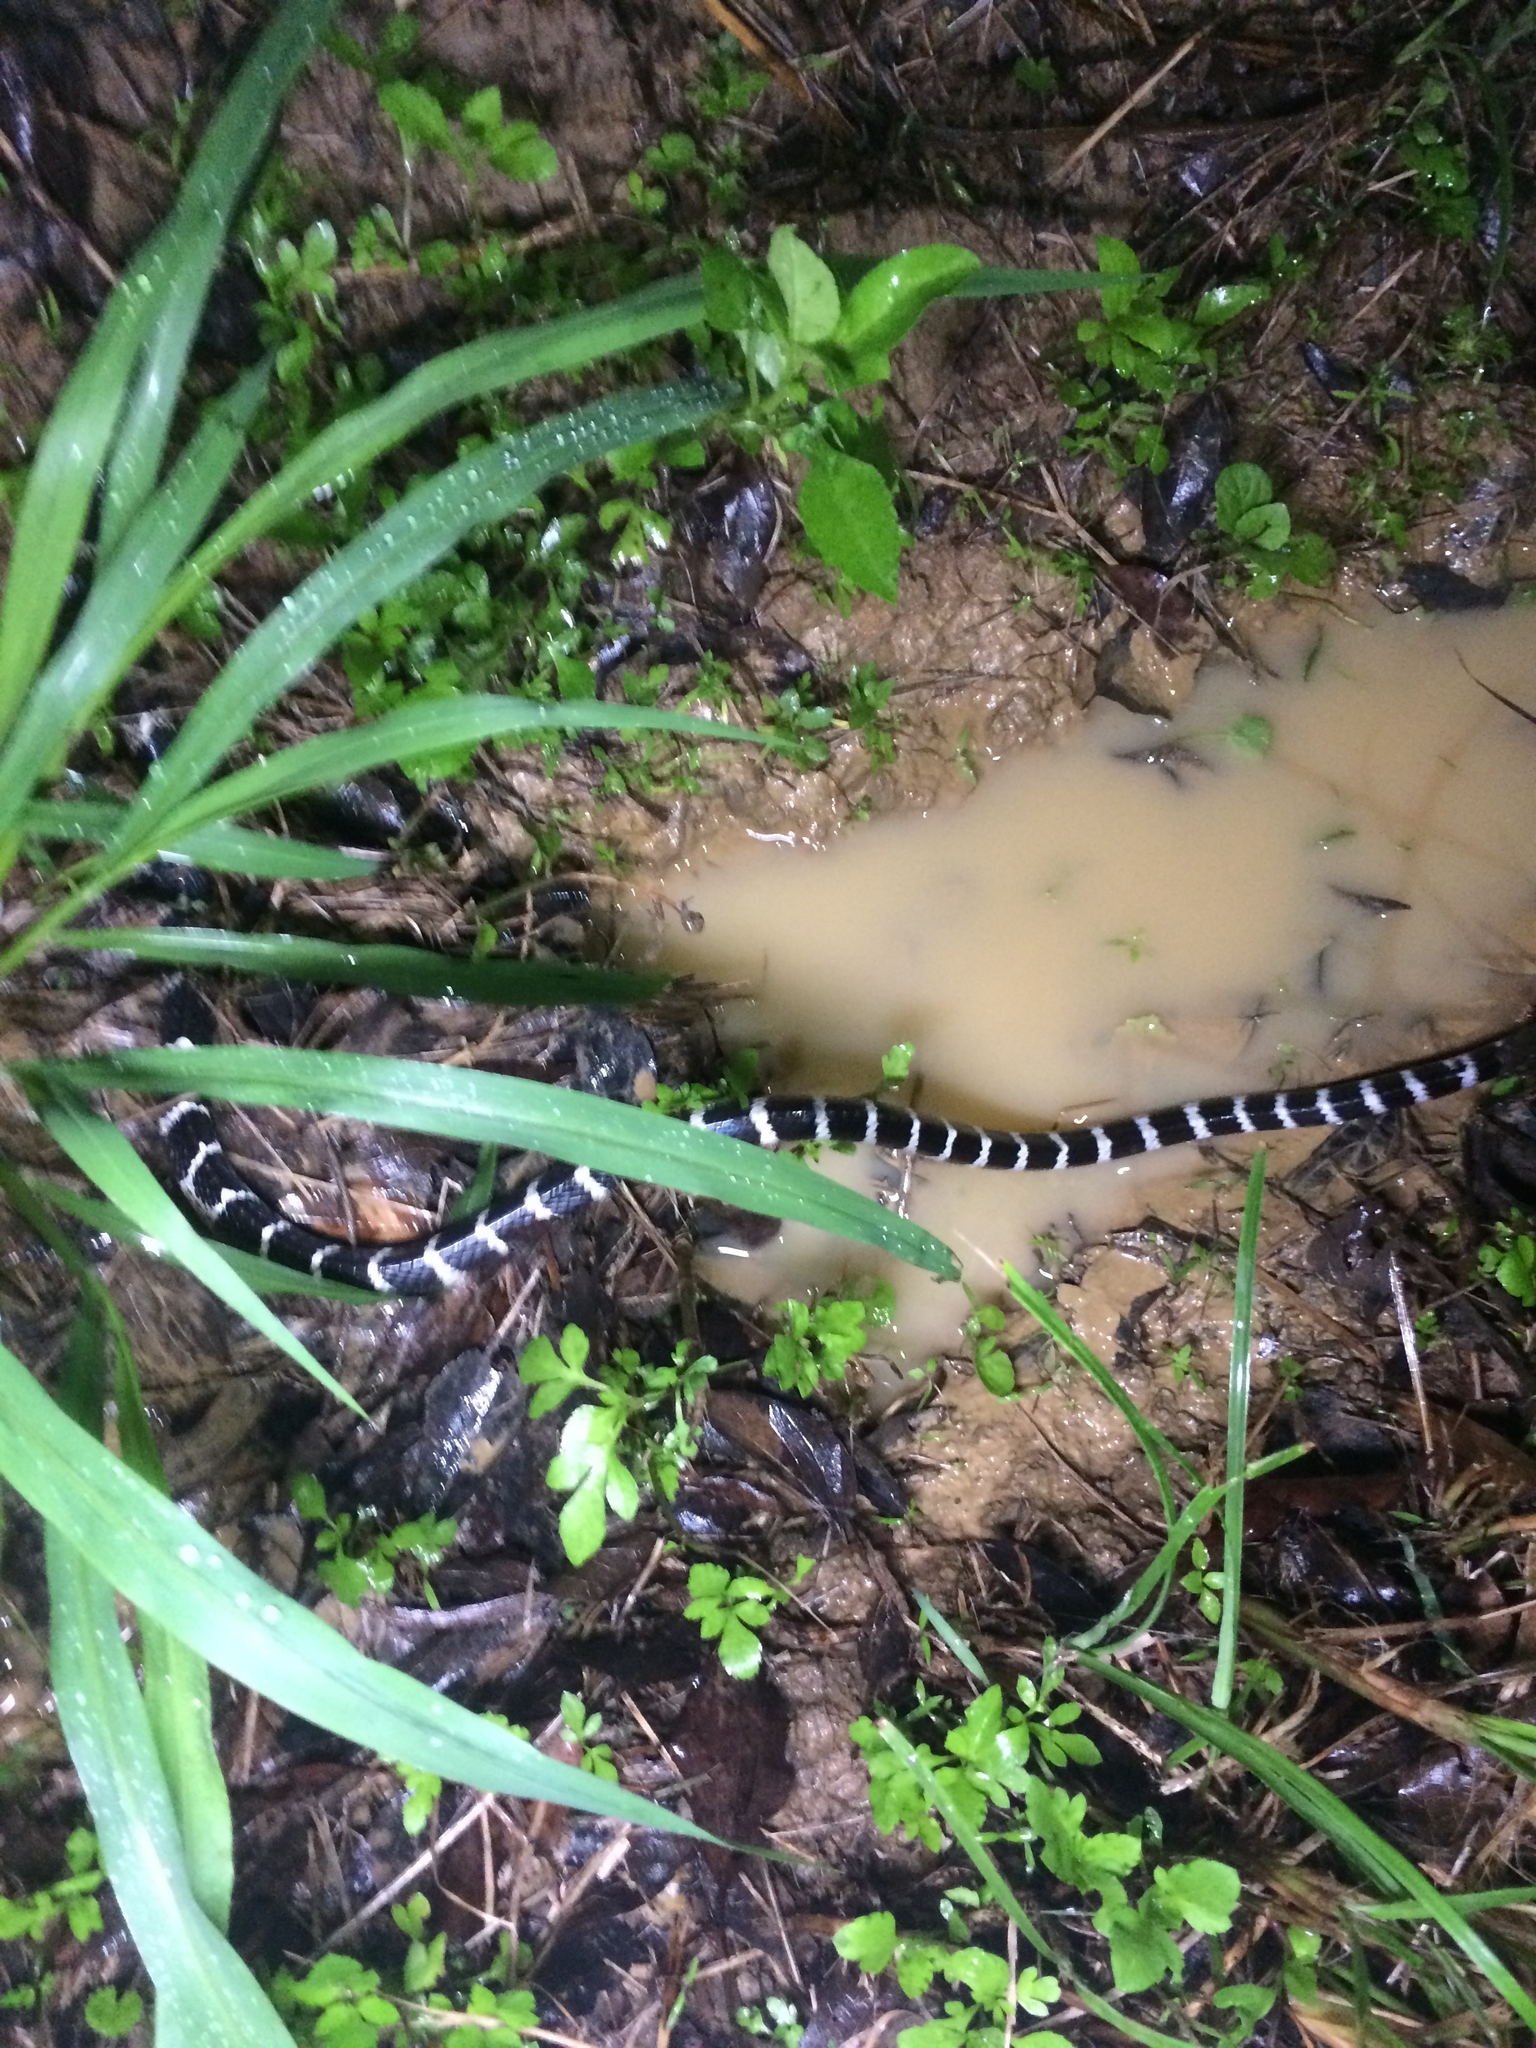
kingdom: Animalia
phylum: Chordata
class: Squamata
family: Elapidae
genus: Bungarus
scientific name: Bungarus multicinctus
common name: Many-banded krait
